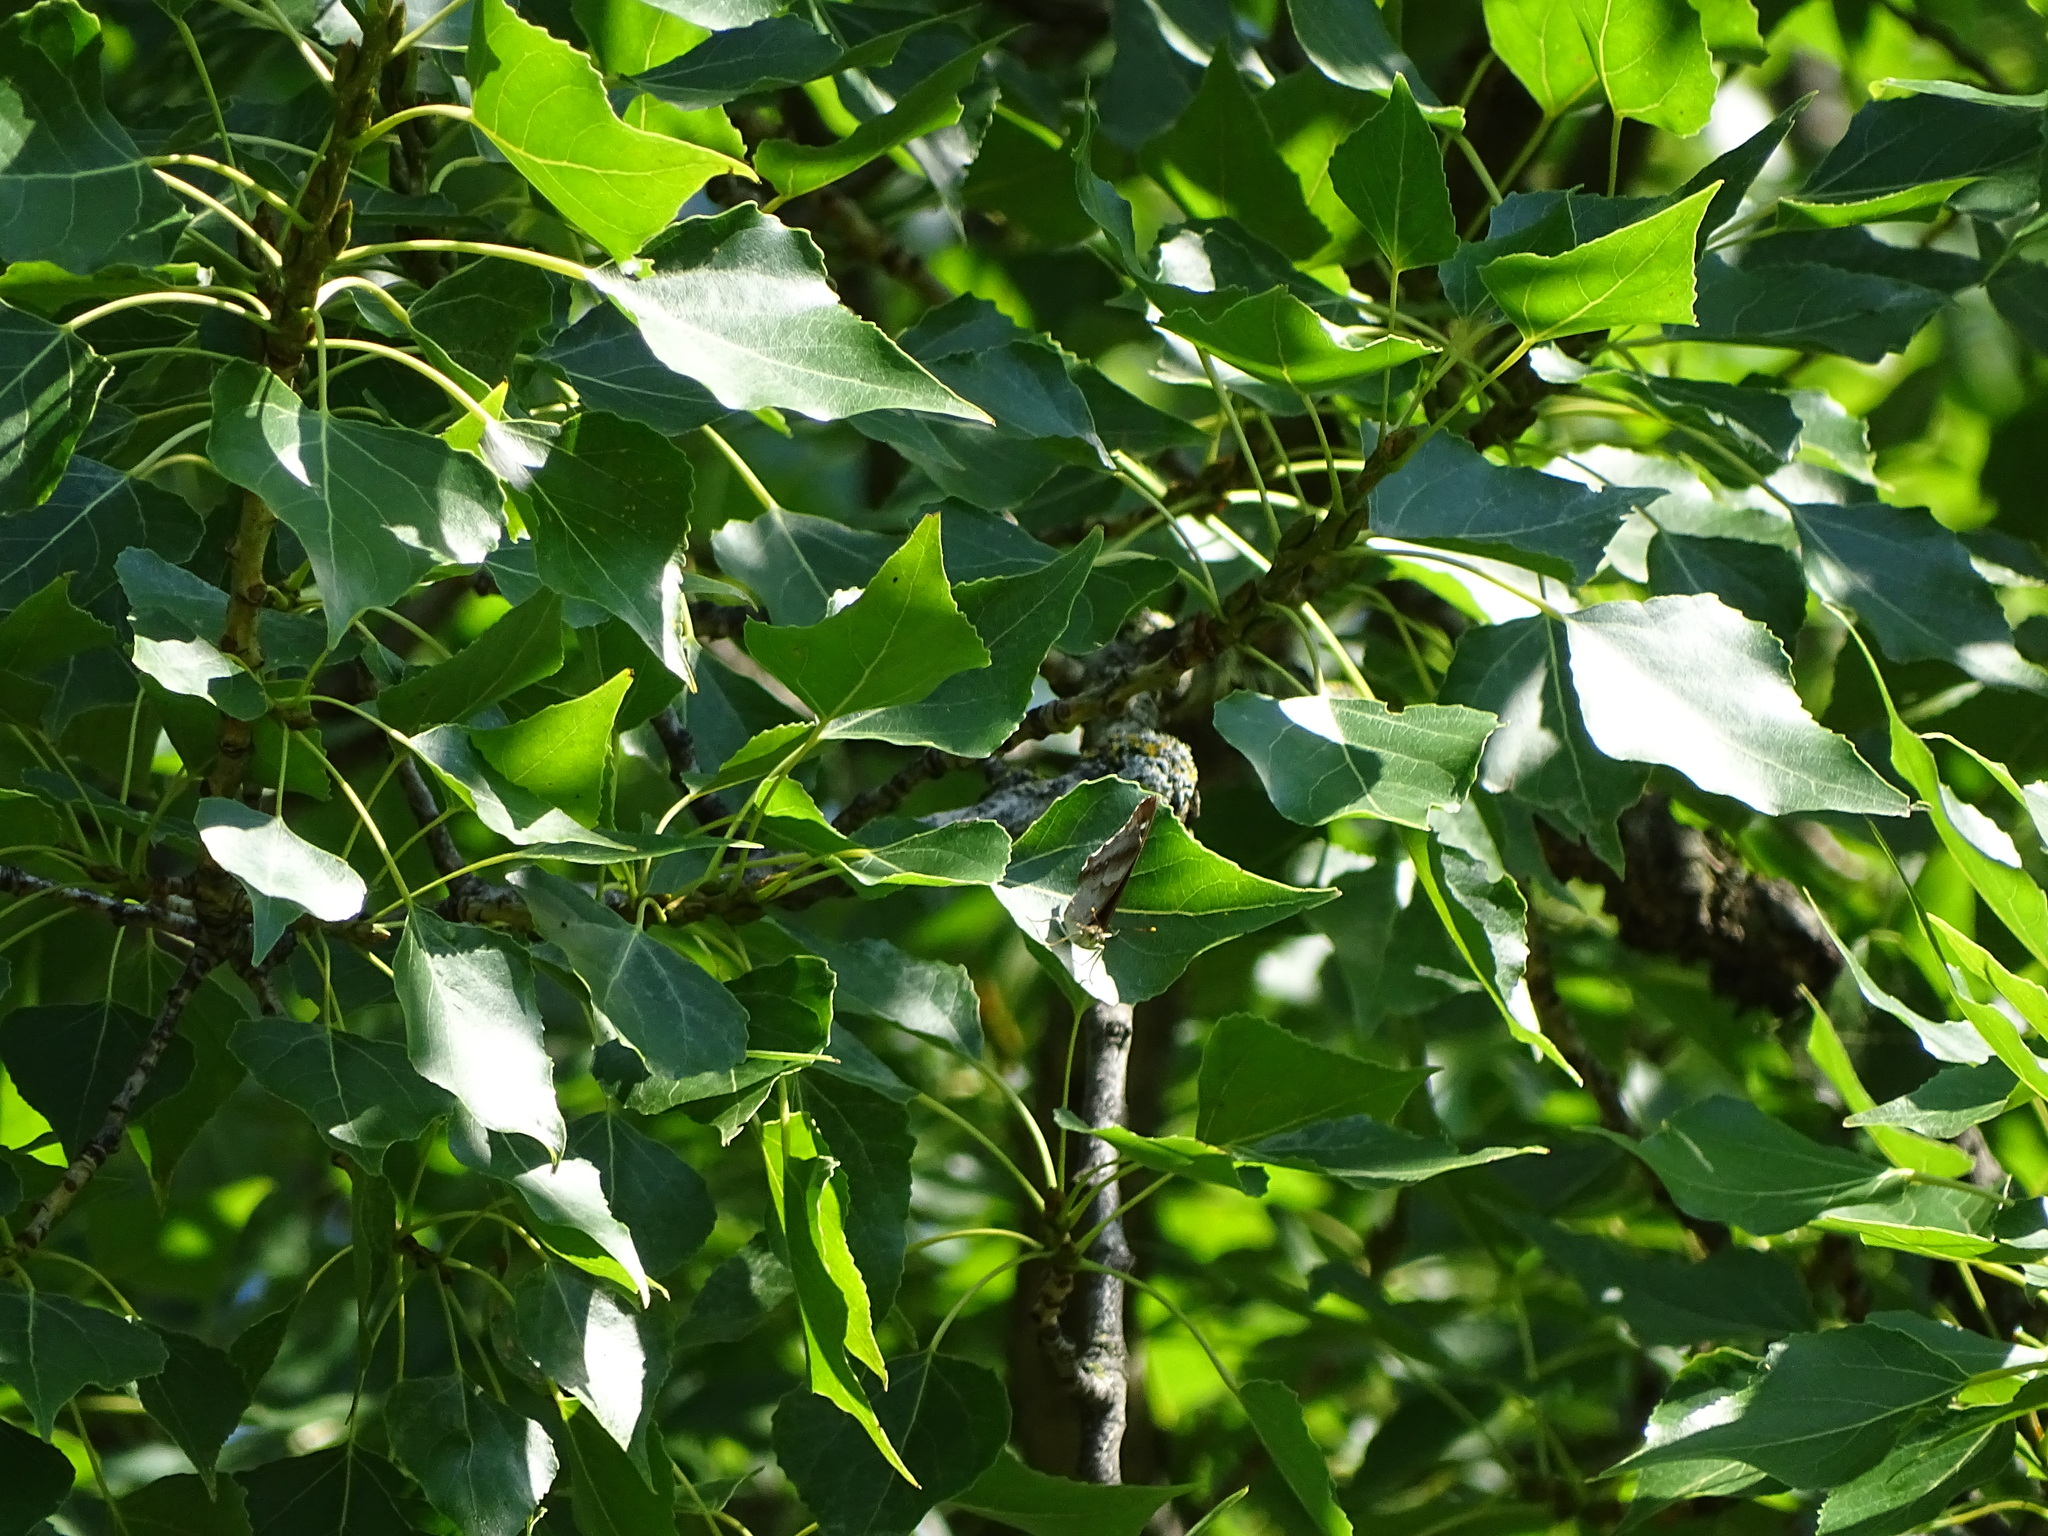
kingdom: Animalia
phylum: Arthropoda
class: Insecta
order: Lepidoptera
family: Nymphalidae
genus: Apatura
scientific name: Apatura ilia
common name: Lesser purple emperor
